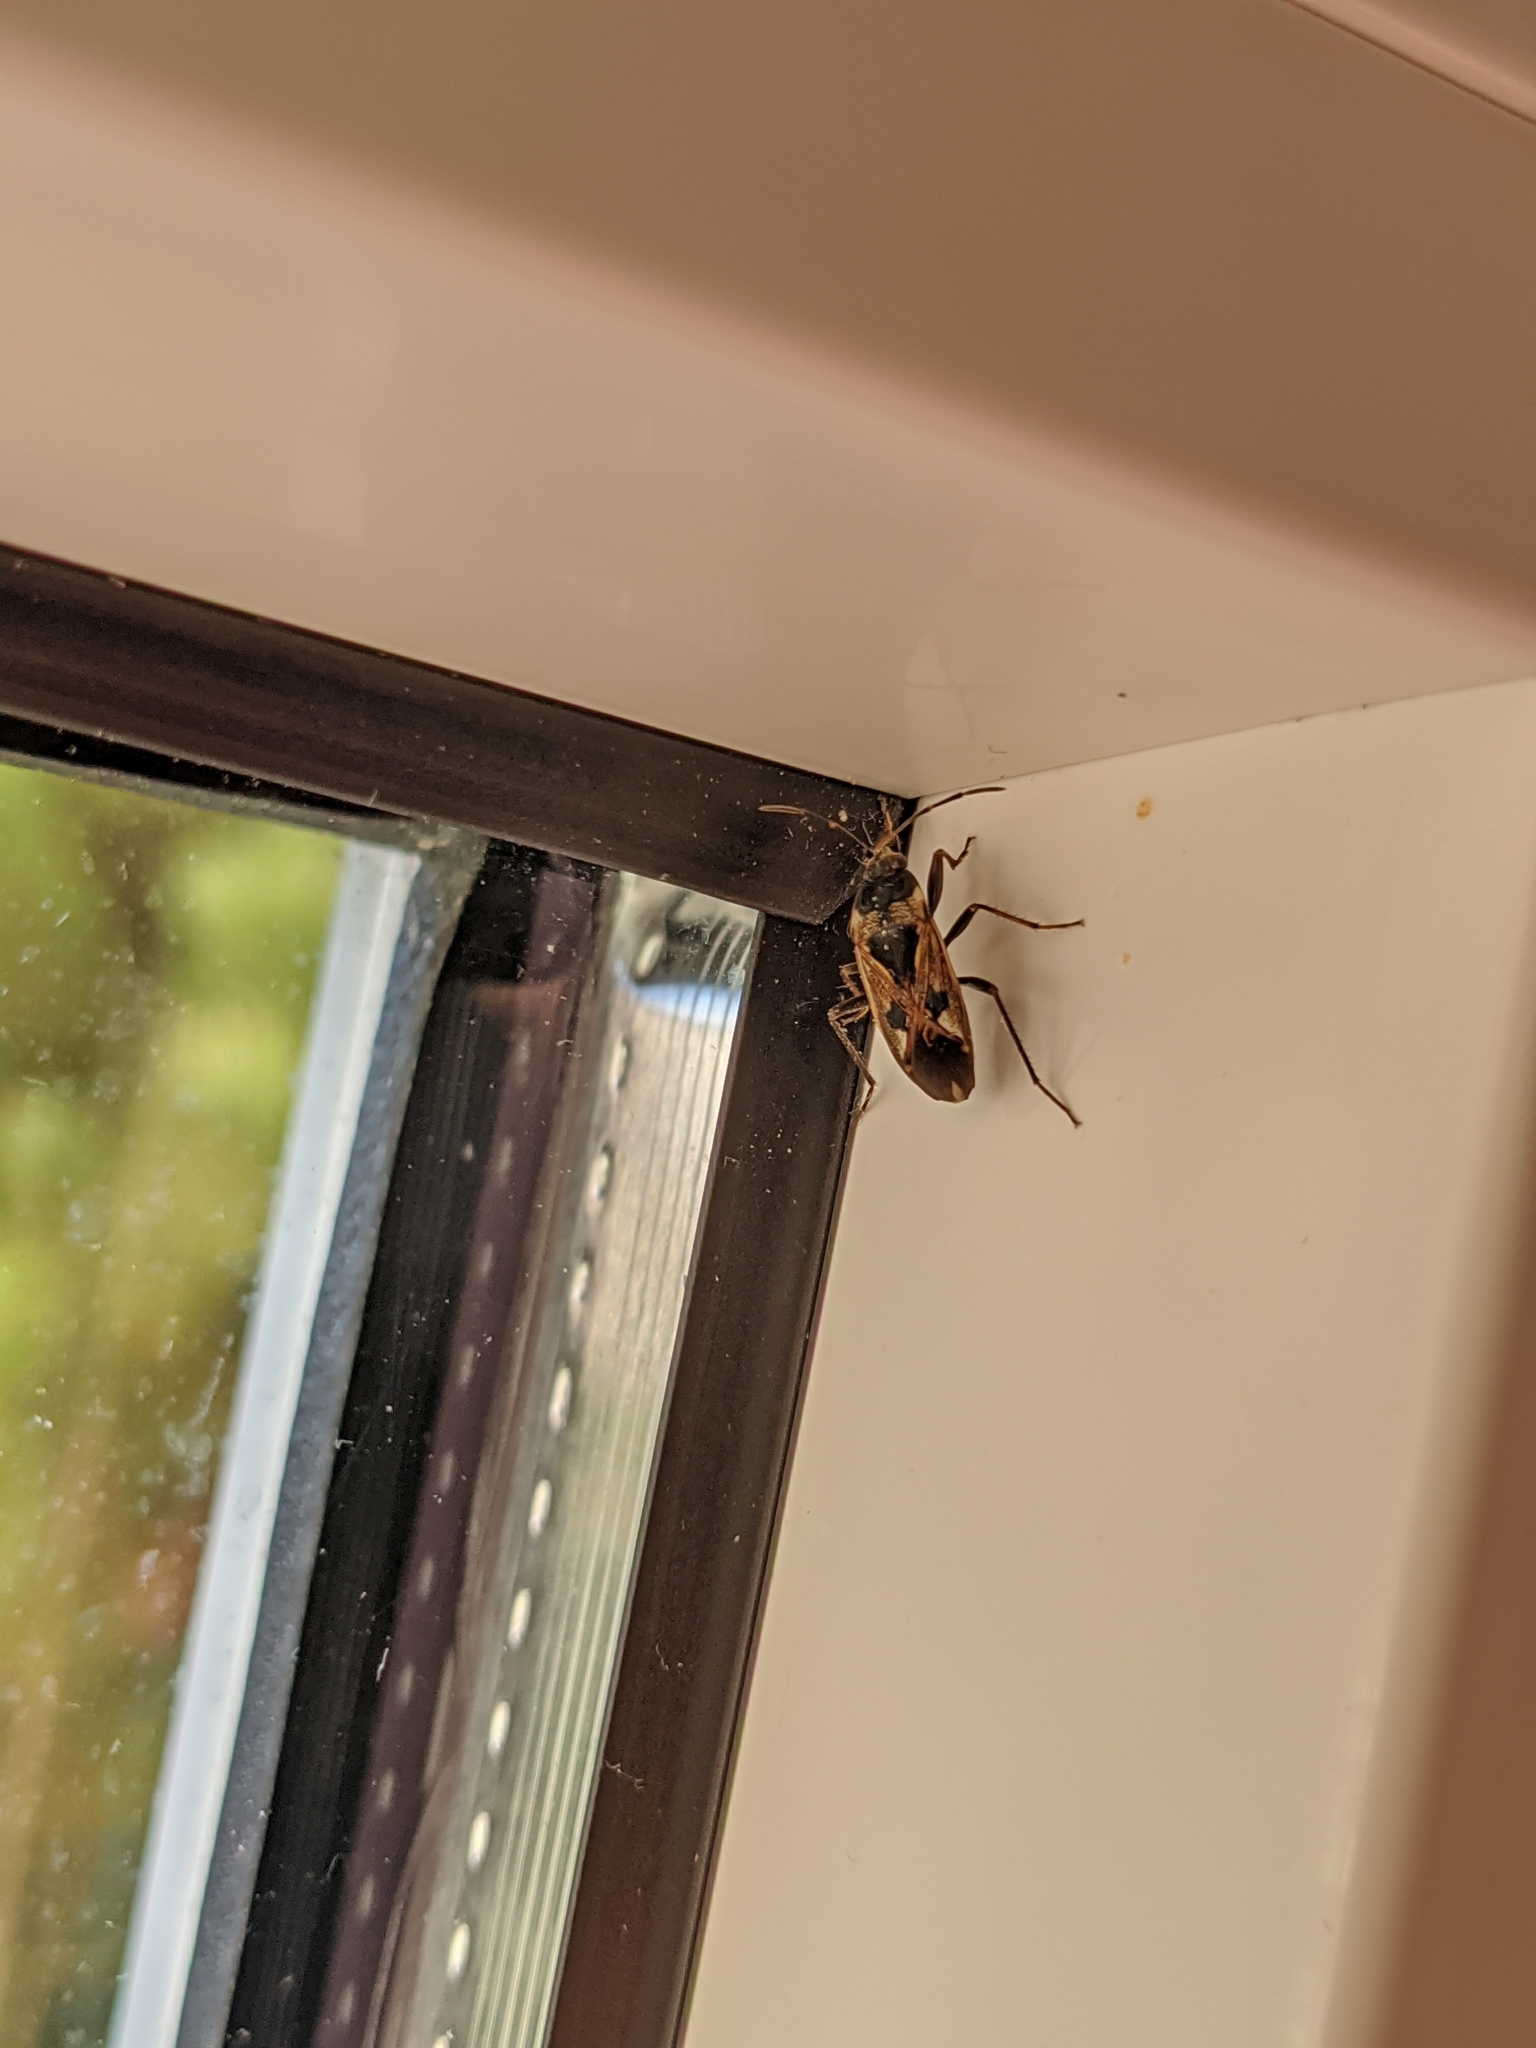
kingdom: Animalia
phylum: Arthropoda
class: Insecta
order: Hemiptera
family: Rhyparochromidae
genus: Rhyparochromus
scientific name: Rhyparochromus vulgaris
